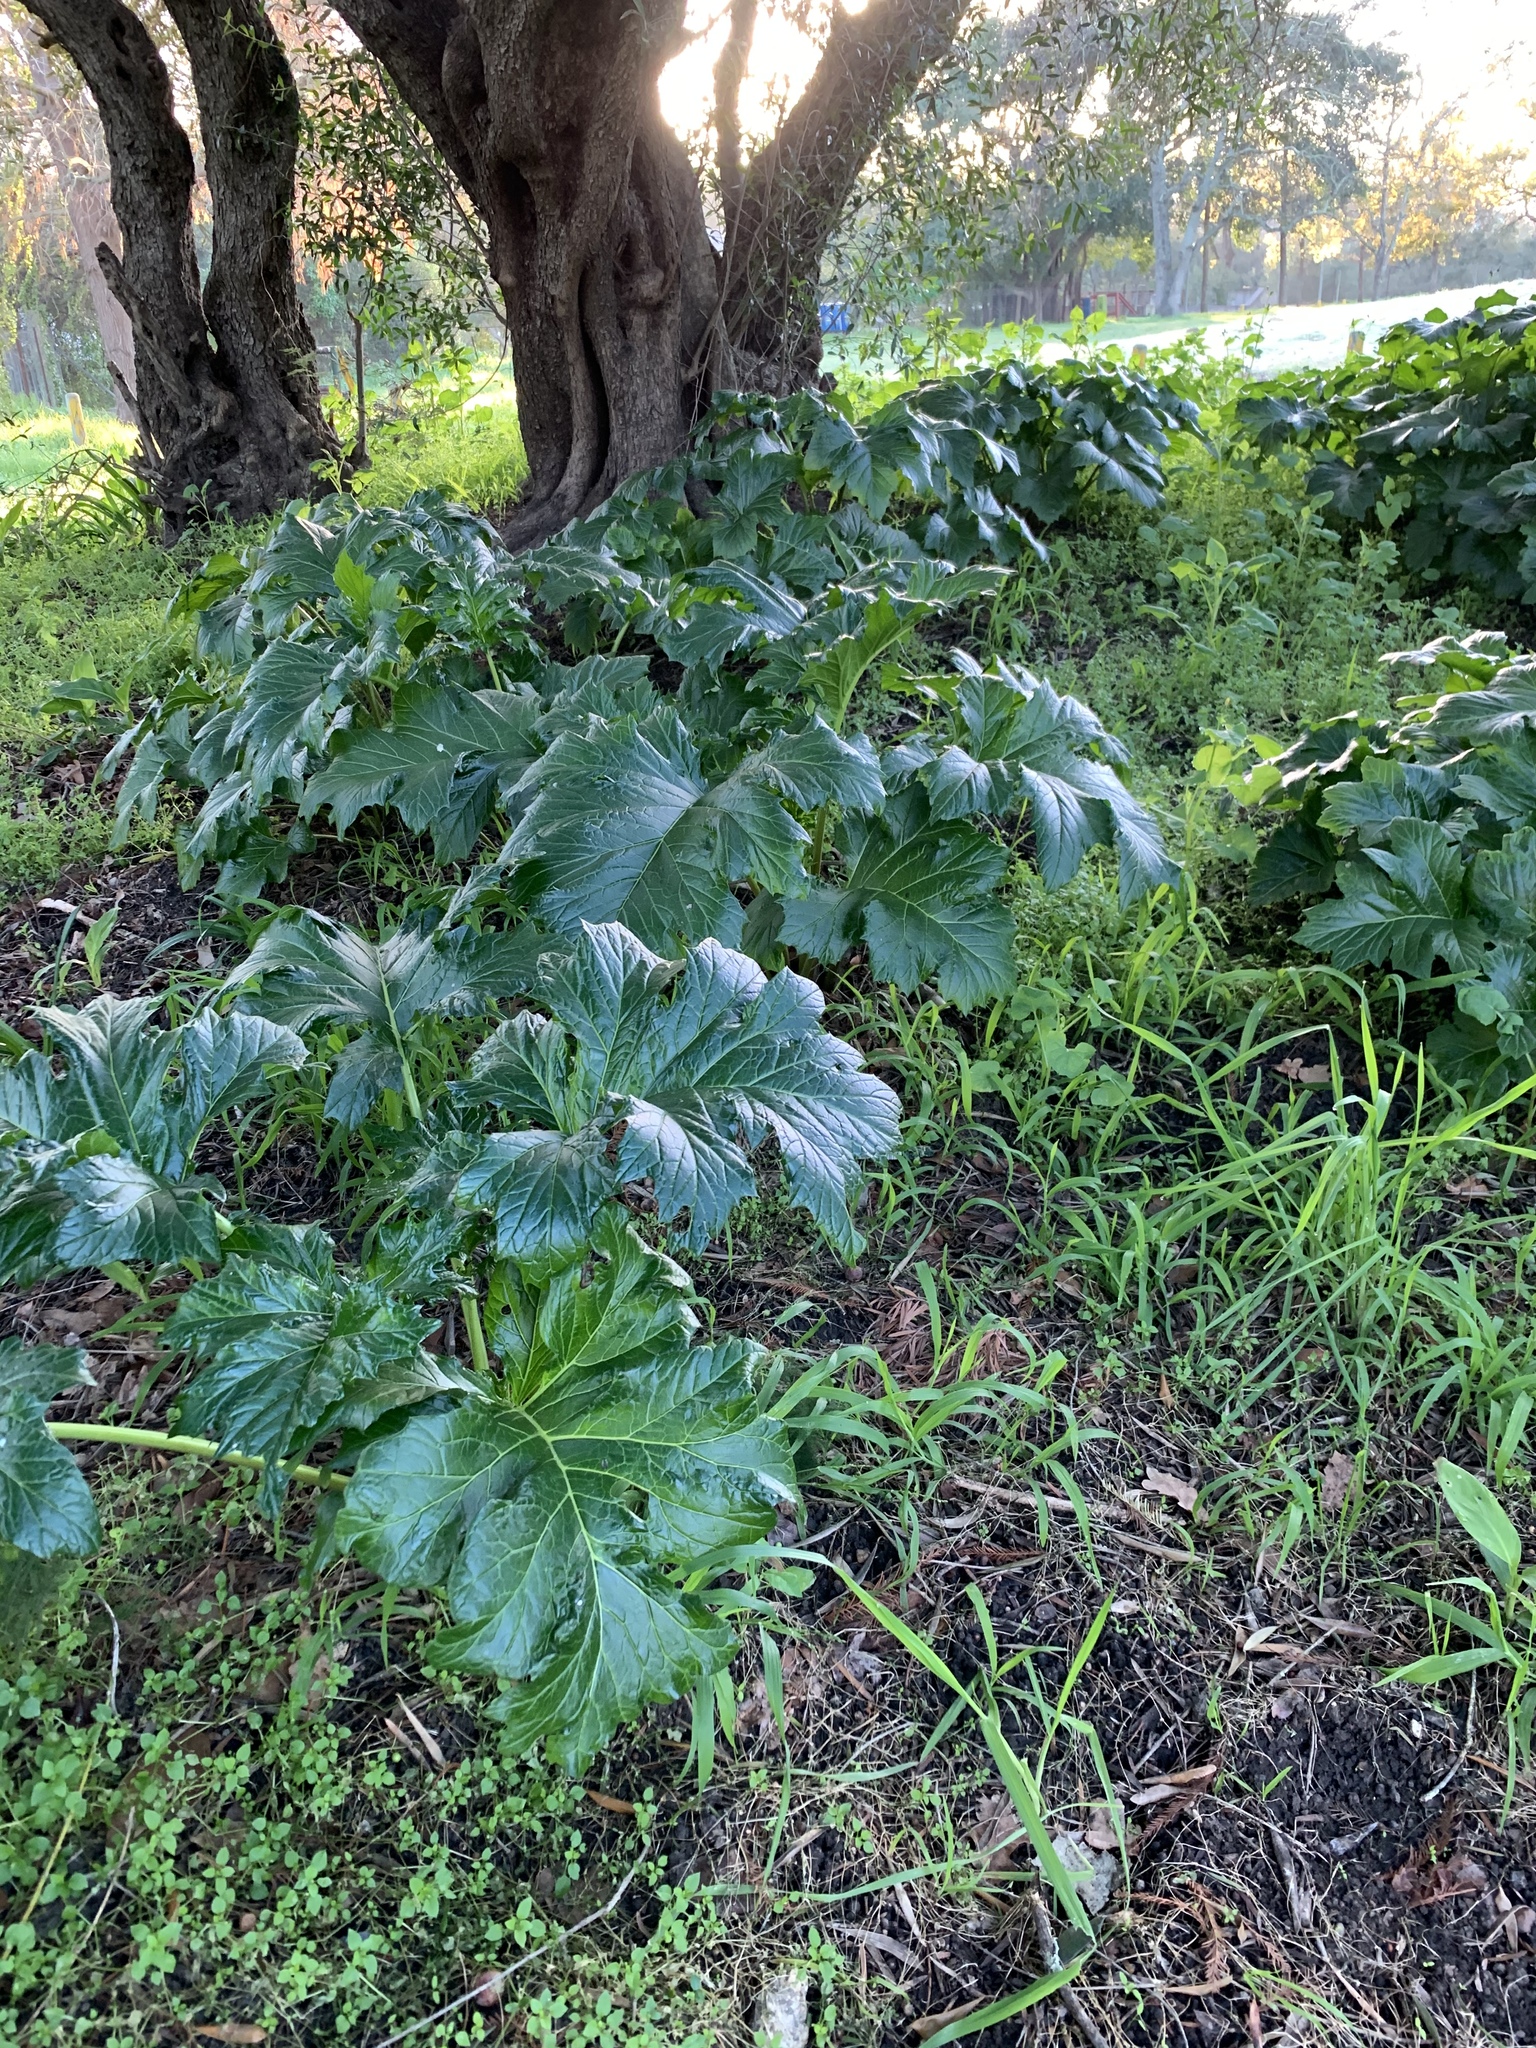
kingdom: Plantae
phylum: Tracheophyta
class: Magnoliopsida
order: Lamiales
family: Acanthaceae
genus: Acanthus
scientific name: Acanthus mollis
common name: Bear's-breech
